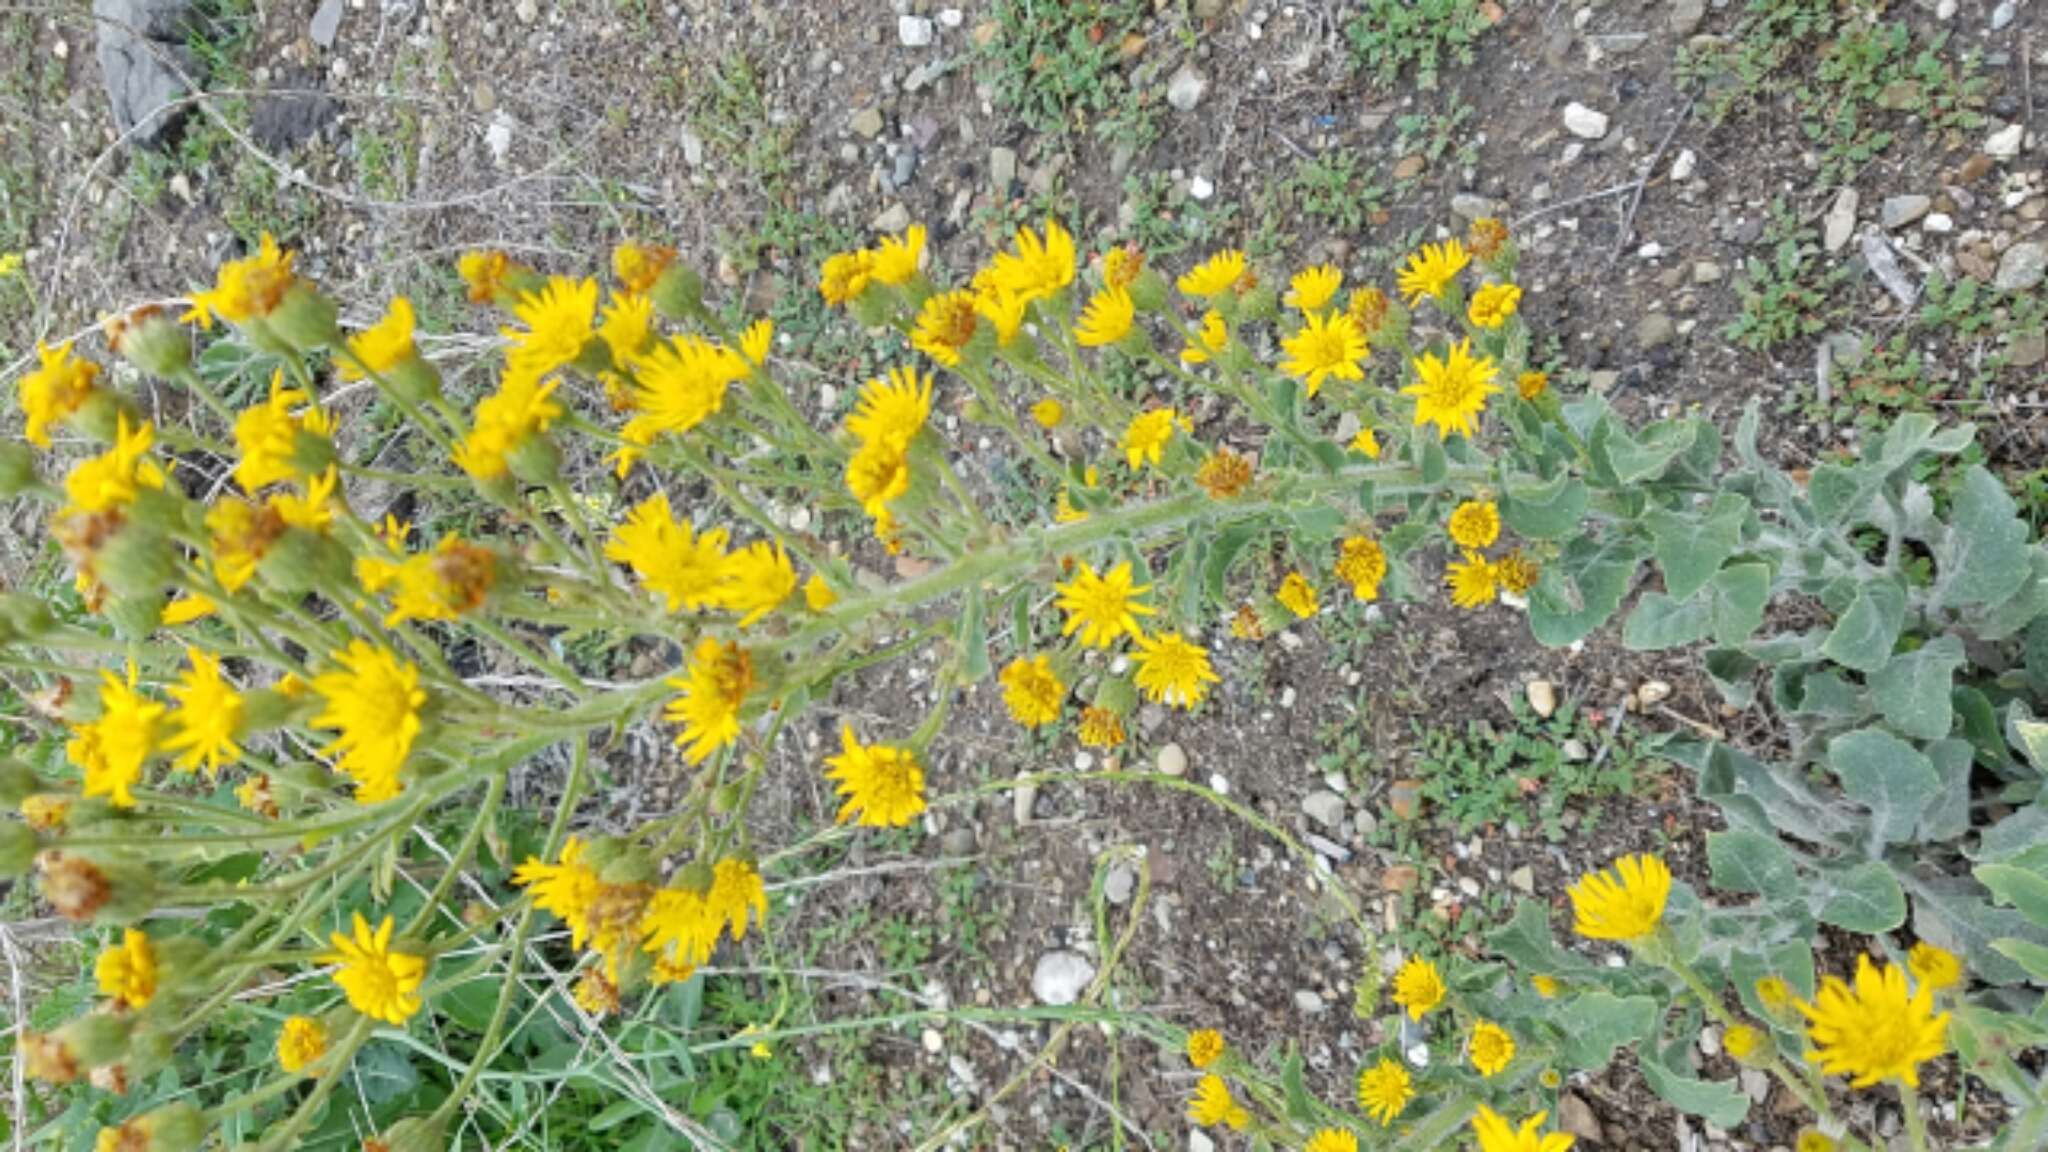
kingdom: Plantae
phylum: Tracheophyta
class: Magnoliopsida
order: Asterales
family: Asteraceae
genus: Heterotheca
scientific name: Heterotheca grandiflora
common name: Telegraphweed
